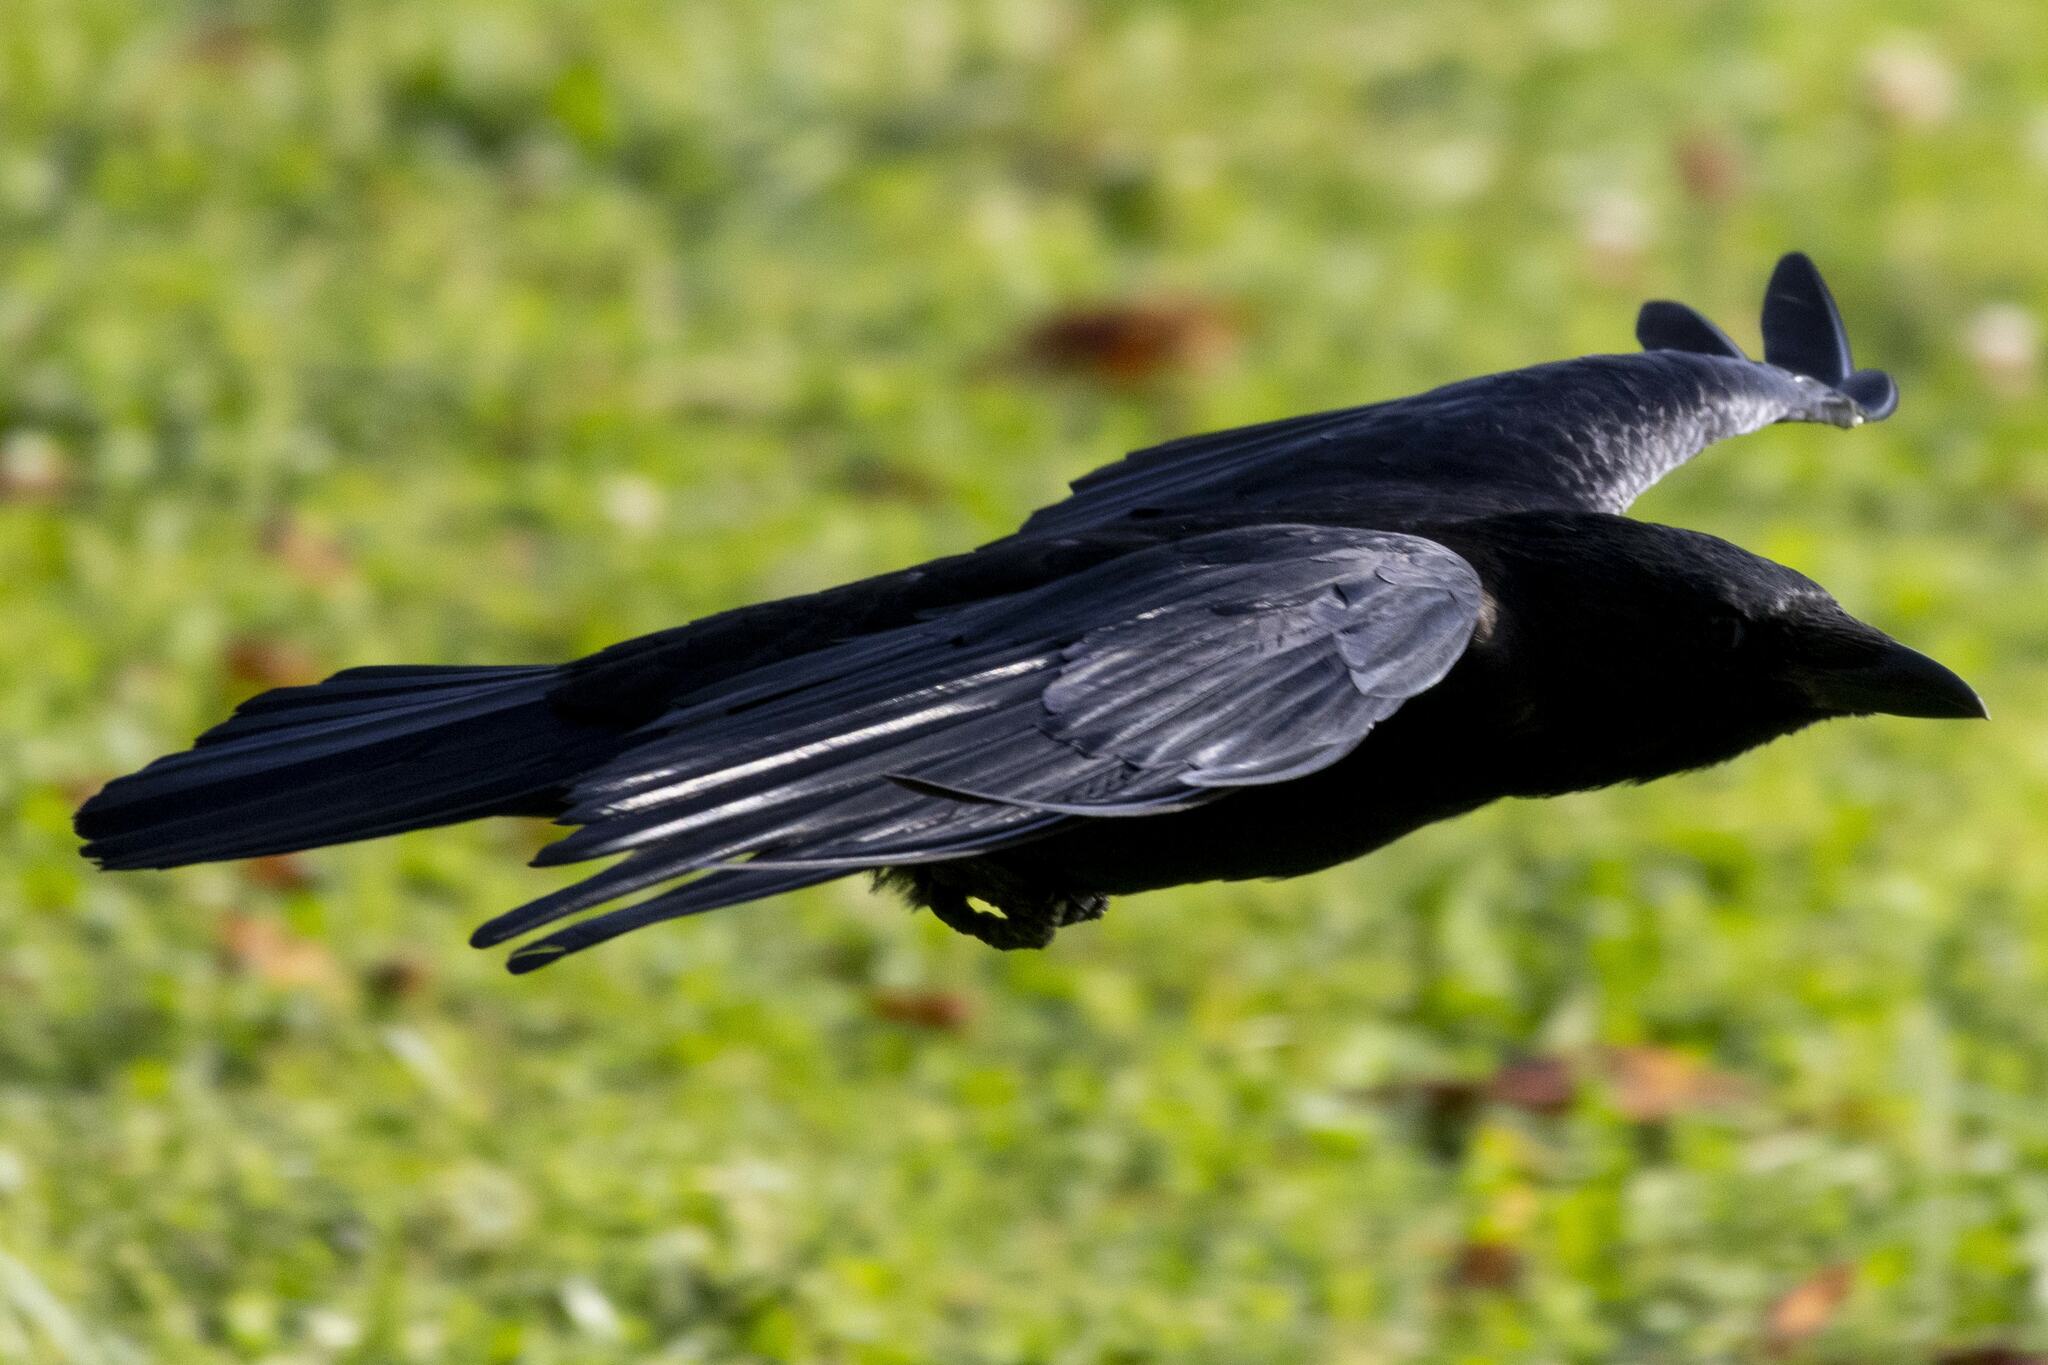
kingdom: Animalia
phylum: Chordata
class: Aves
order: Passeriformes
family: Corvidae
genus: Corvus
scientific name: Corvus corone
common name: Carrion crow
